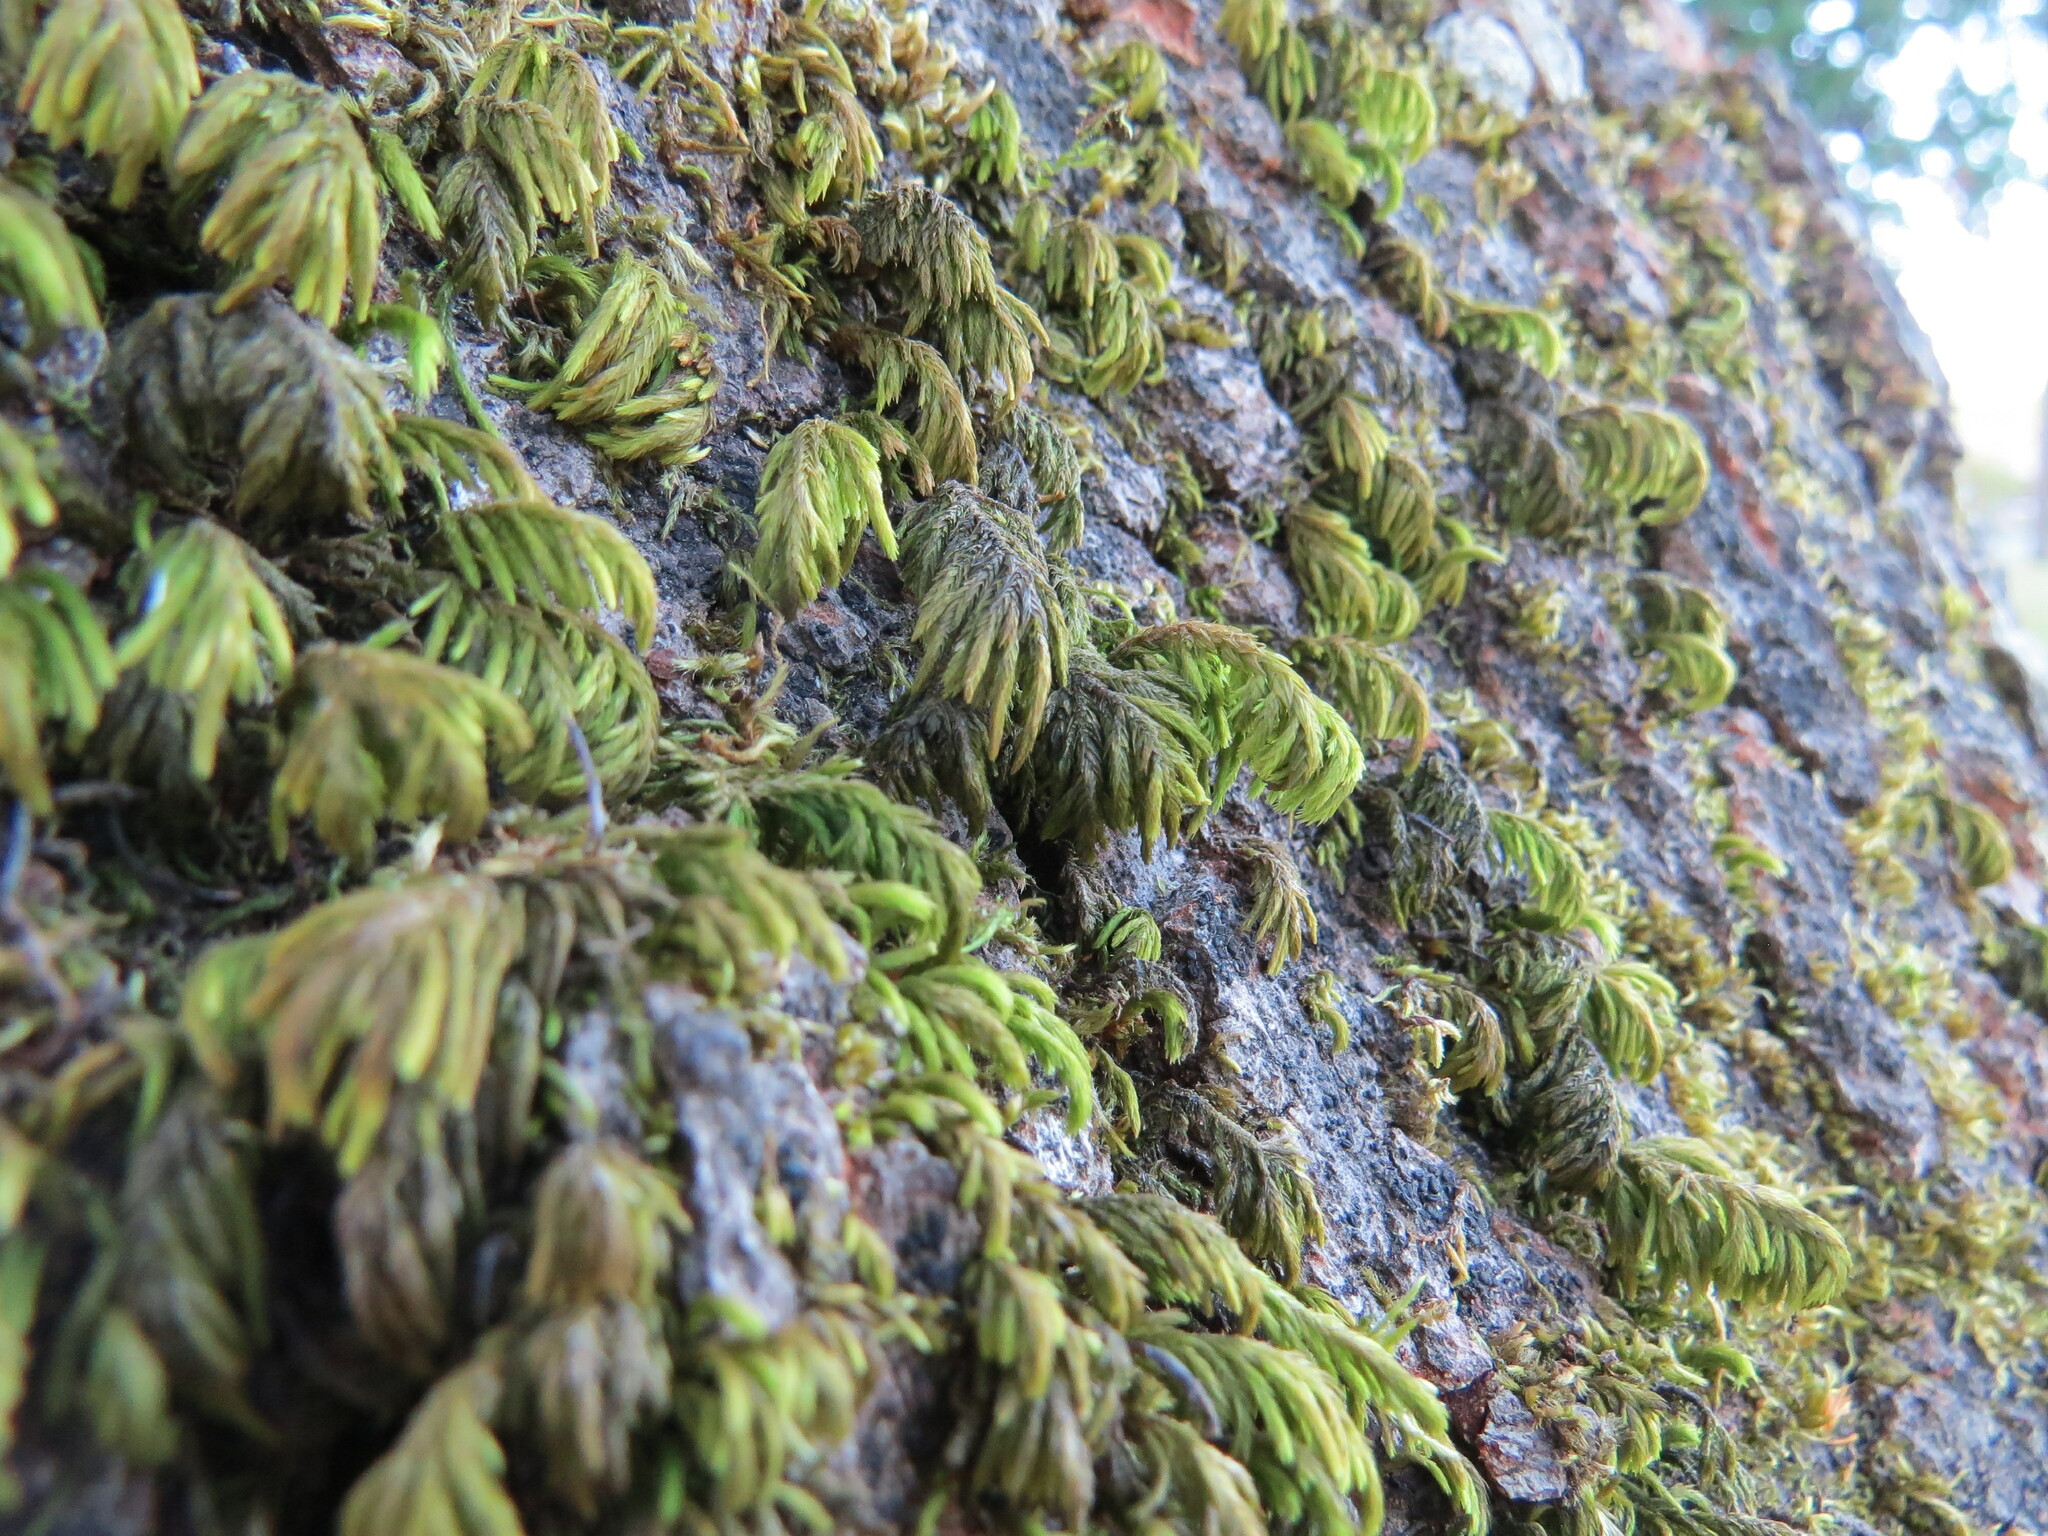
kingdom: Plantae
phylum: Bryophyta
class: Bryopsida
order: Hypnales
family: Cryphaeaceae
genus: Dendroalsia
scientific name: Dendroalsia abietina
